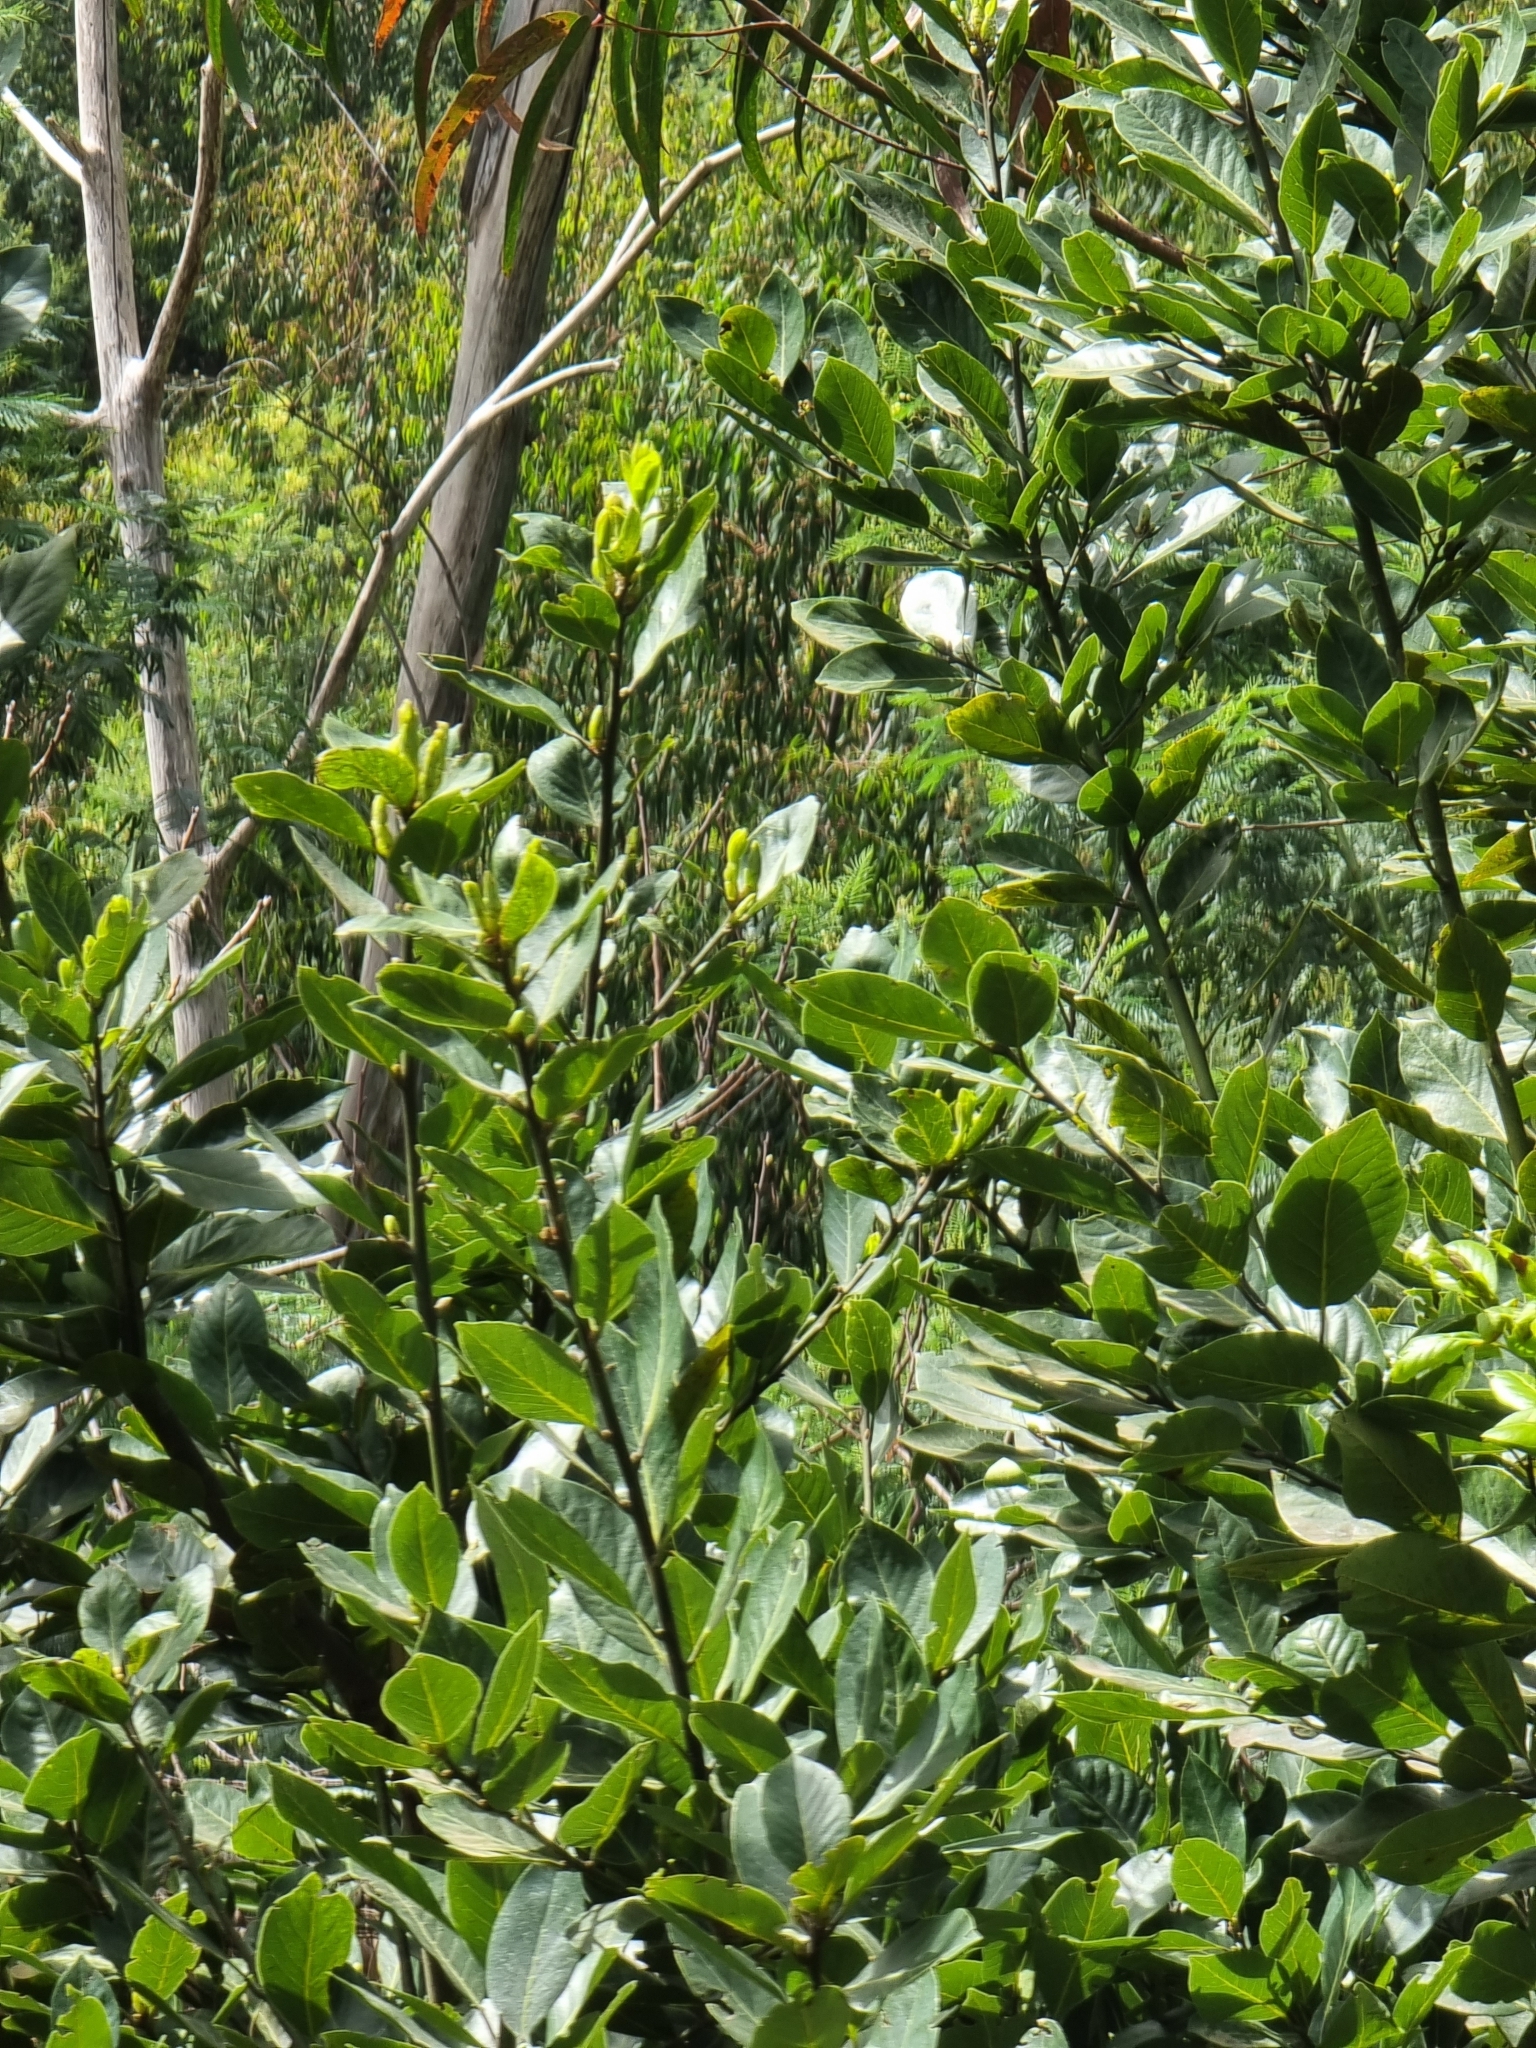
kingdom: Plantae
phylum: Tracheophyta
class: Magnoliopsida
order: Laurales
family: Lauraceae
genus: Laurus
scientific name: Laurus novocanariensis
